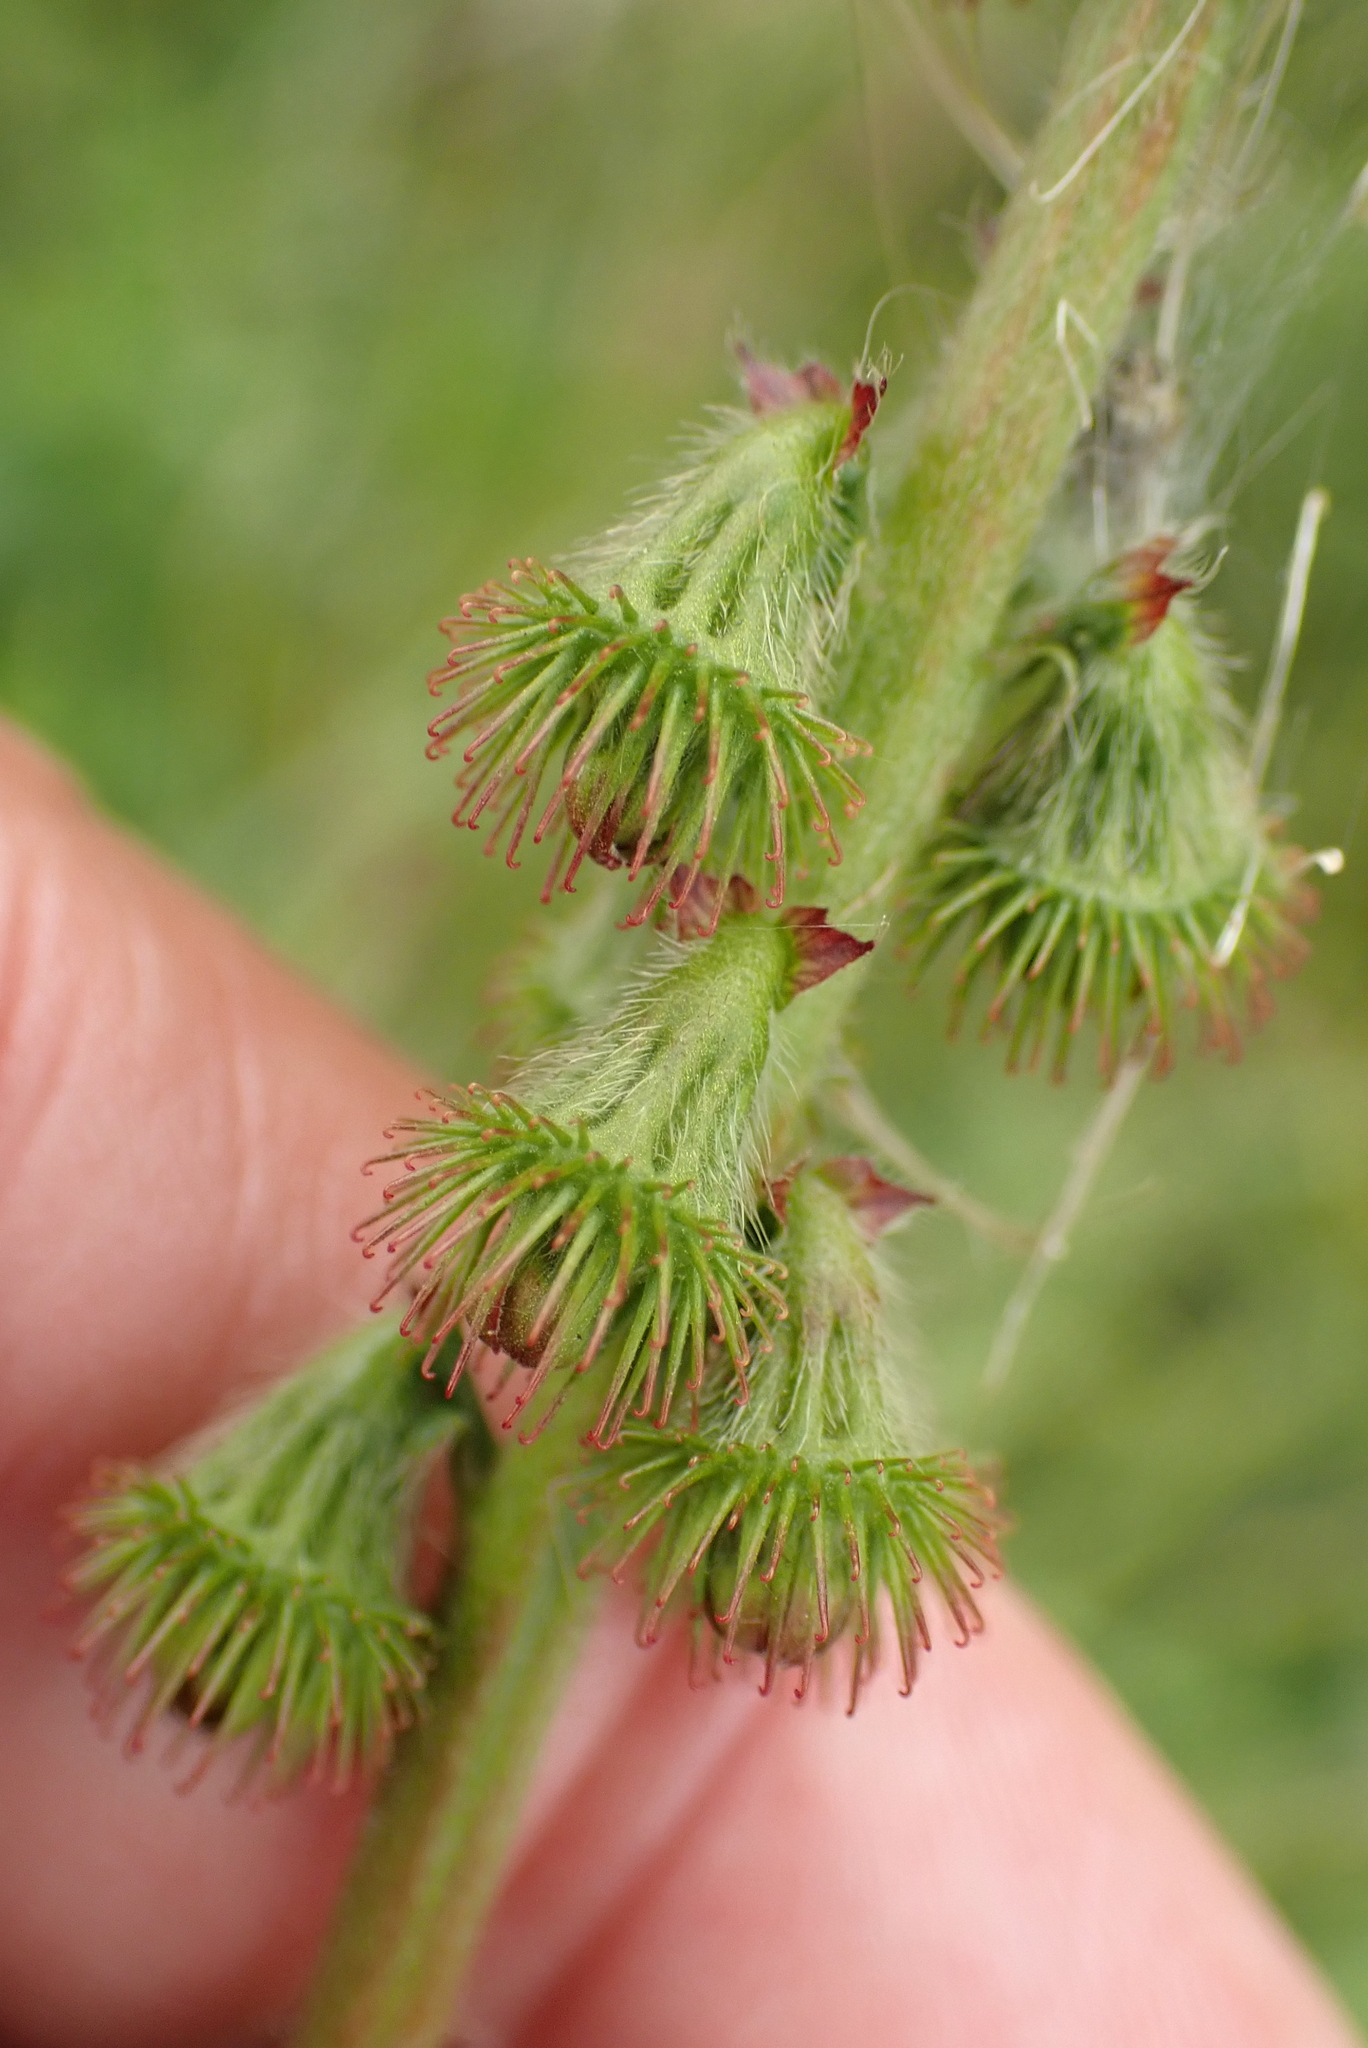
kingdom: Plantae
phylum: Tracheophyta
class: Magnoliopsida
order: Rosales
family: Rosaceae
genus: Agrimonia
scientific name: Agrimonia eupatoria
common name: Agrimony
